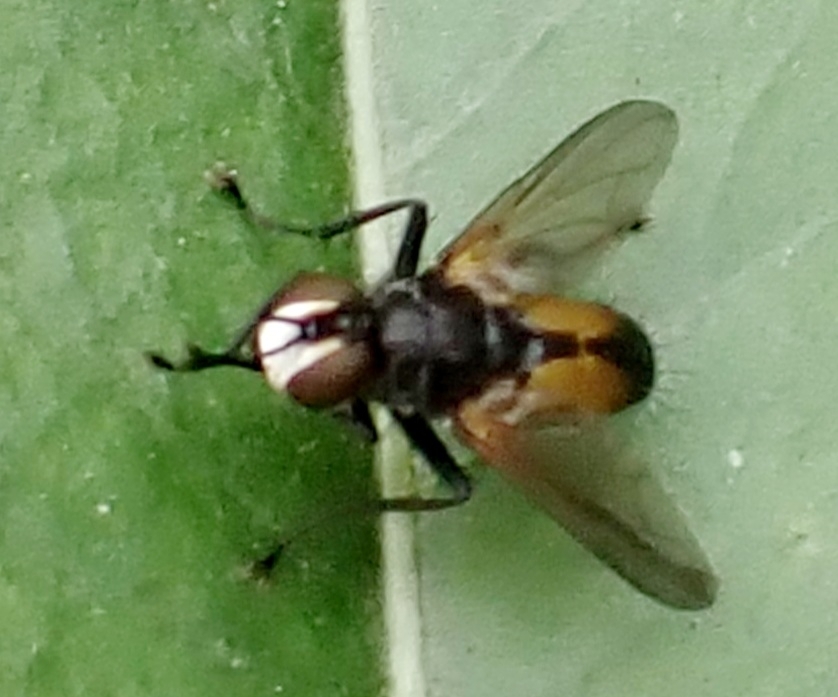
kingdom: Animalia
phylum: Arthropoda
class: Insecta
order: Diptera
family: Tachinidae
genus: Hemyda
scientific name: Hemyda vittata
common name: Tachinid fly
